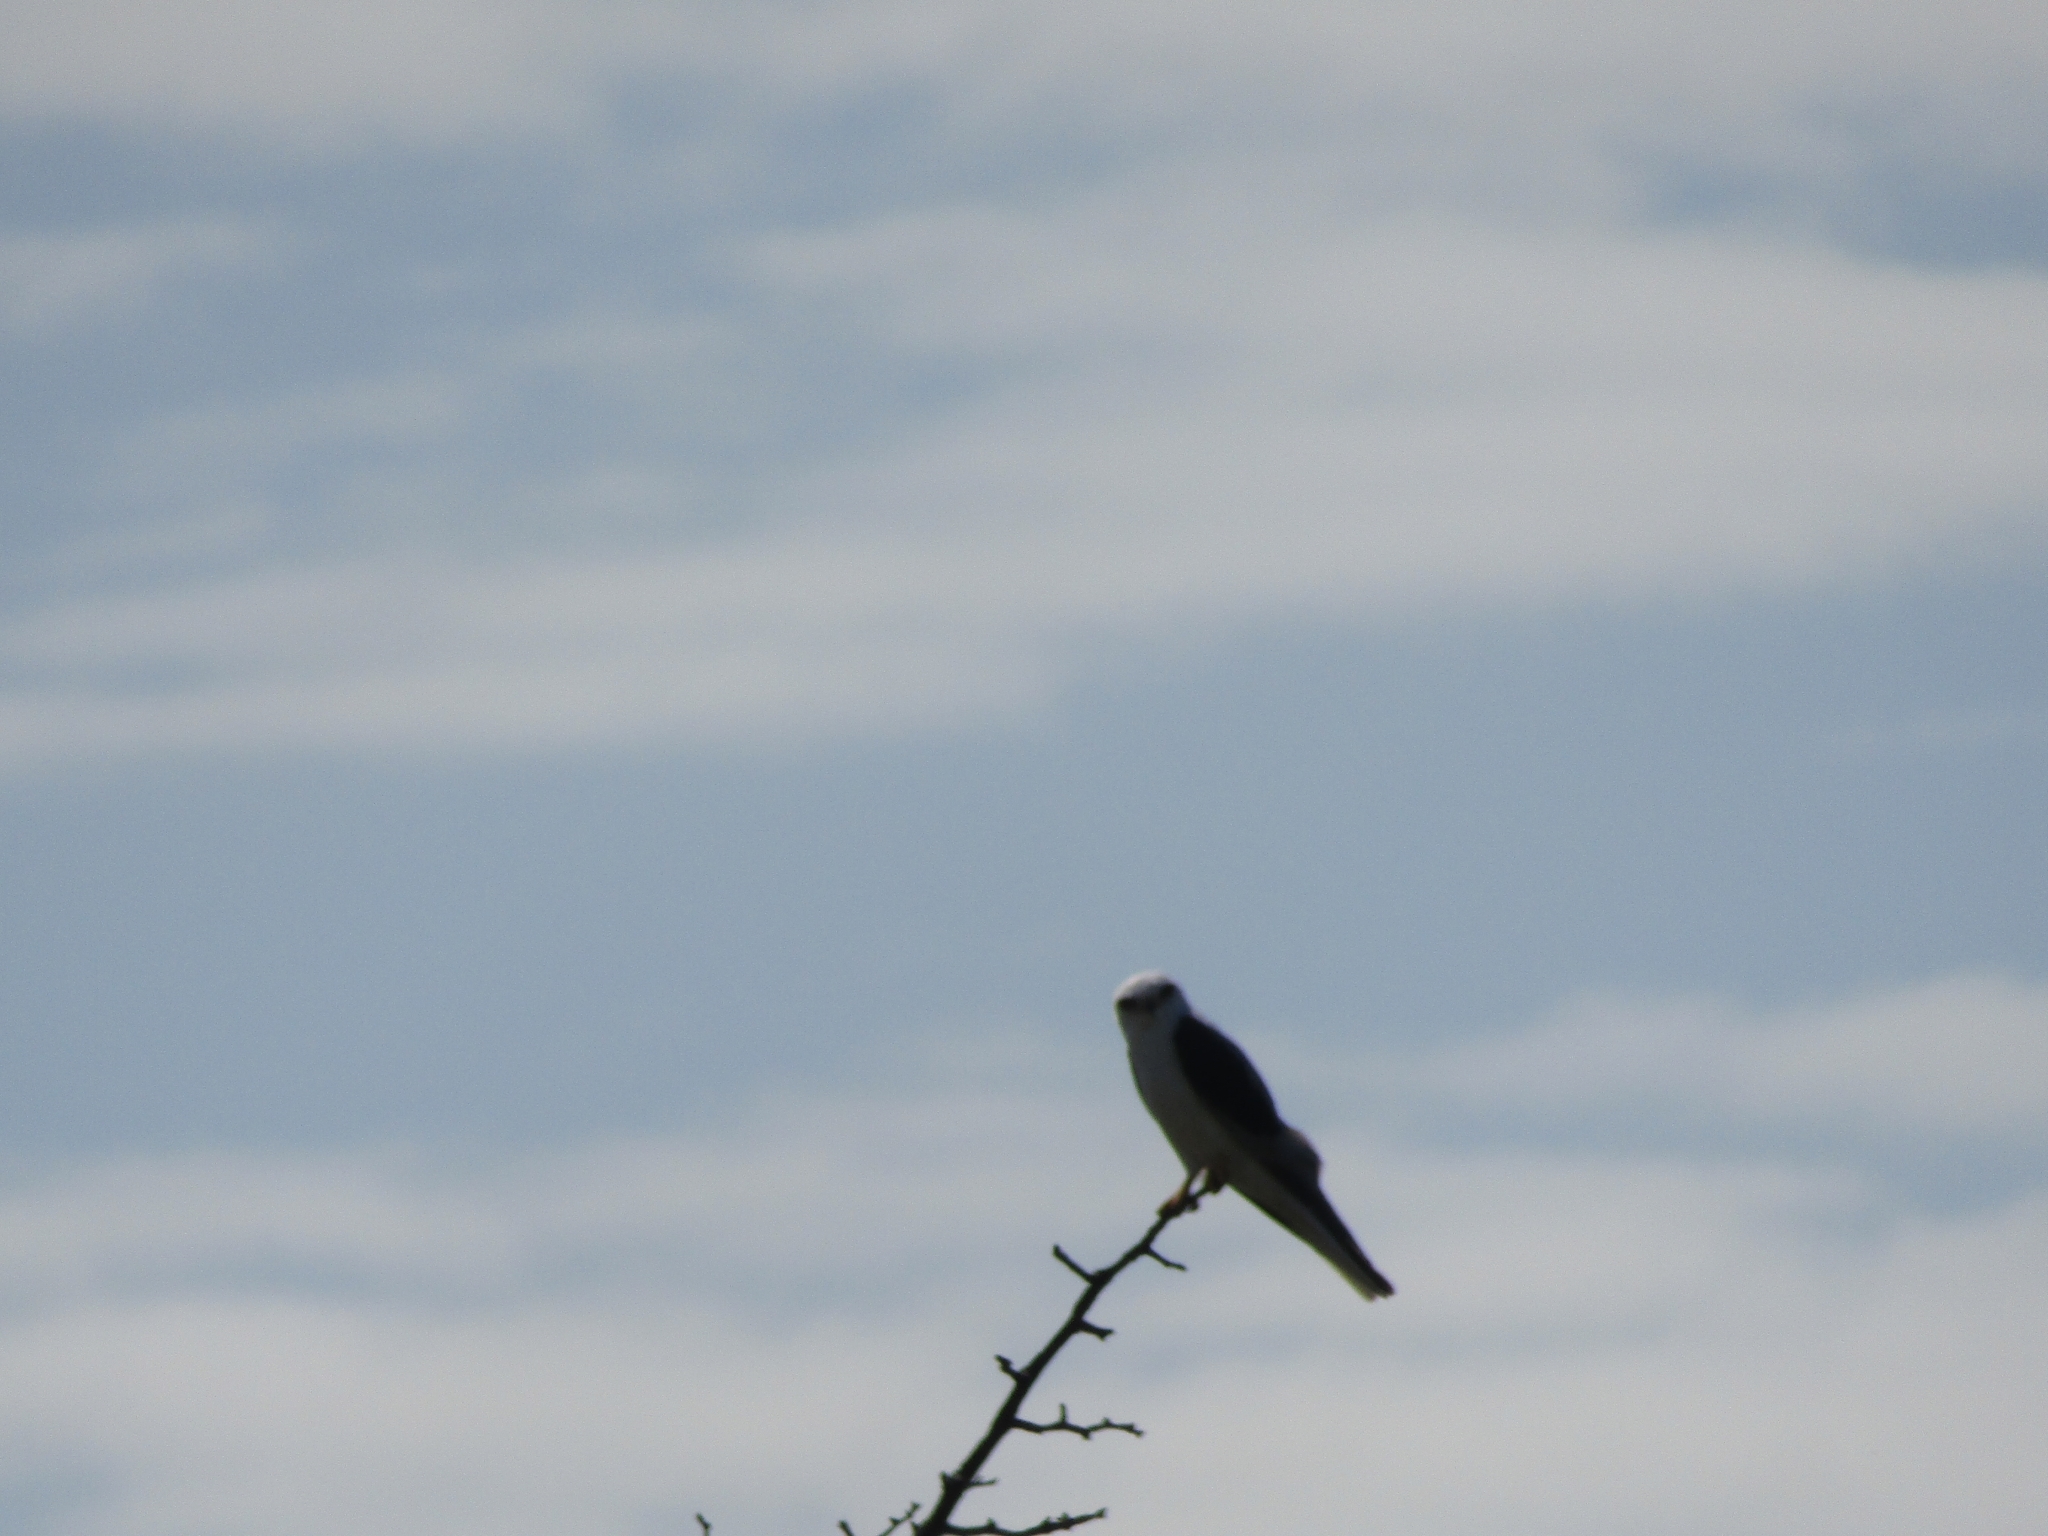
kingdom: Animalia
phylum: Chordata
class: Aves
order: Accipitriformes
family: Accipitridae
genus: Elanus
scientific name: Elanus leucurus
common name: White-tailed kite
